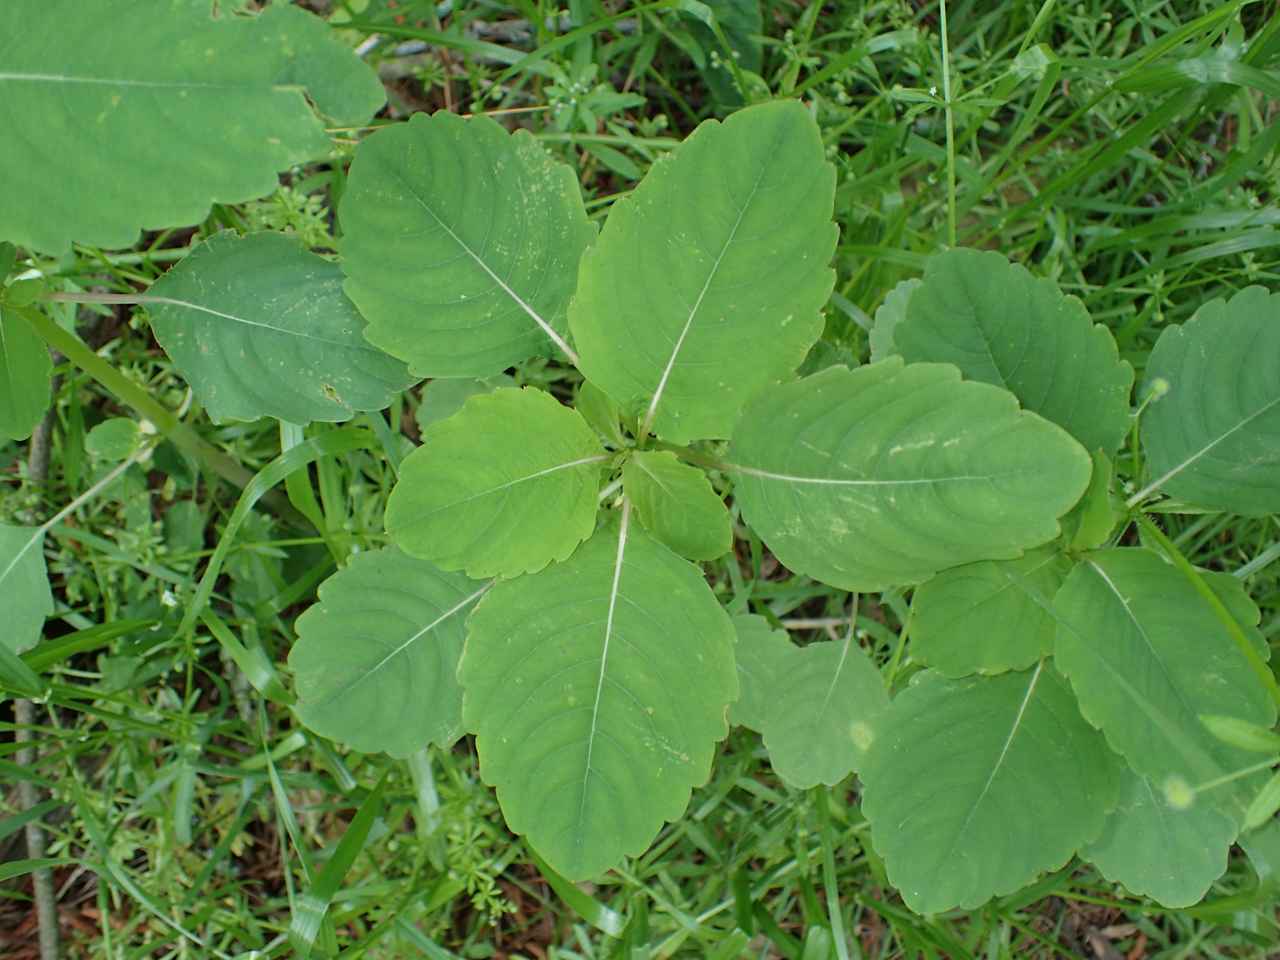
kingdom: Plantae
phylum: Tracheophyta
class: Magnoliopsida
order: Ericales
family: Balsaminaceae
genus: Impatiens
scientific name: Impatiens capensis
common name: Orange balsam
